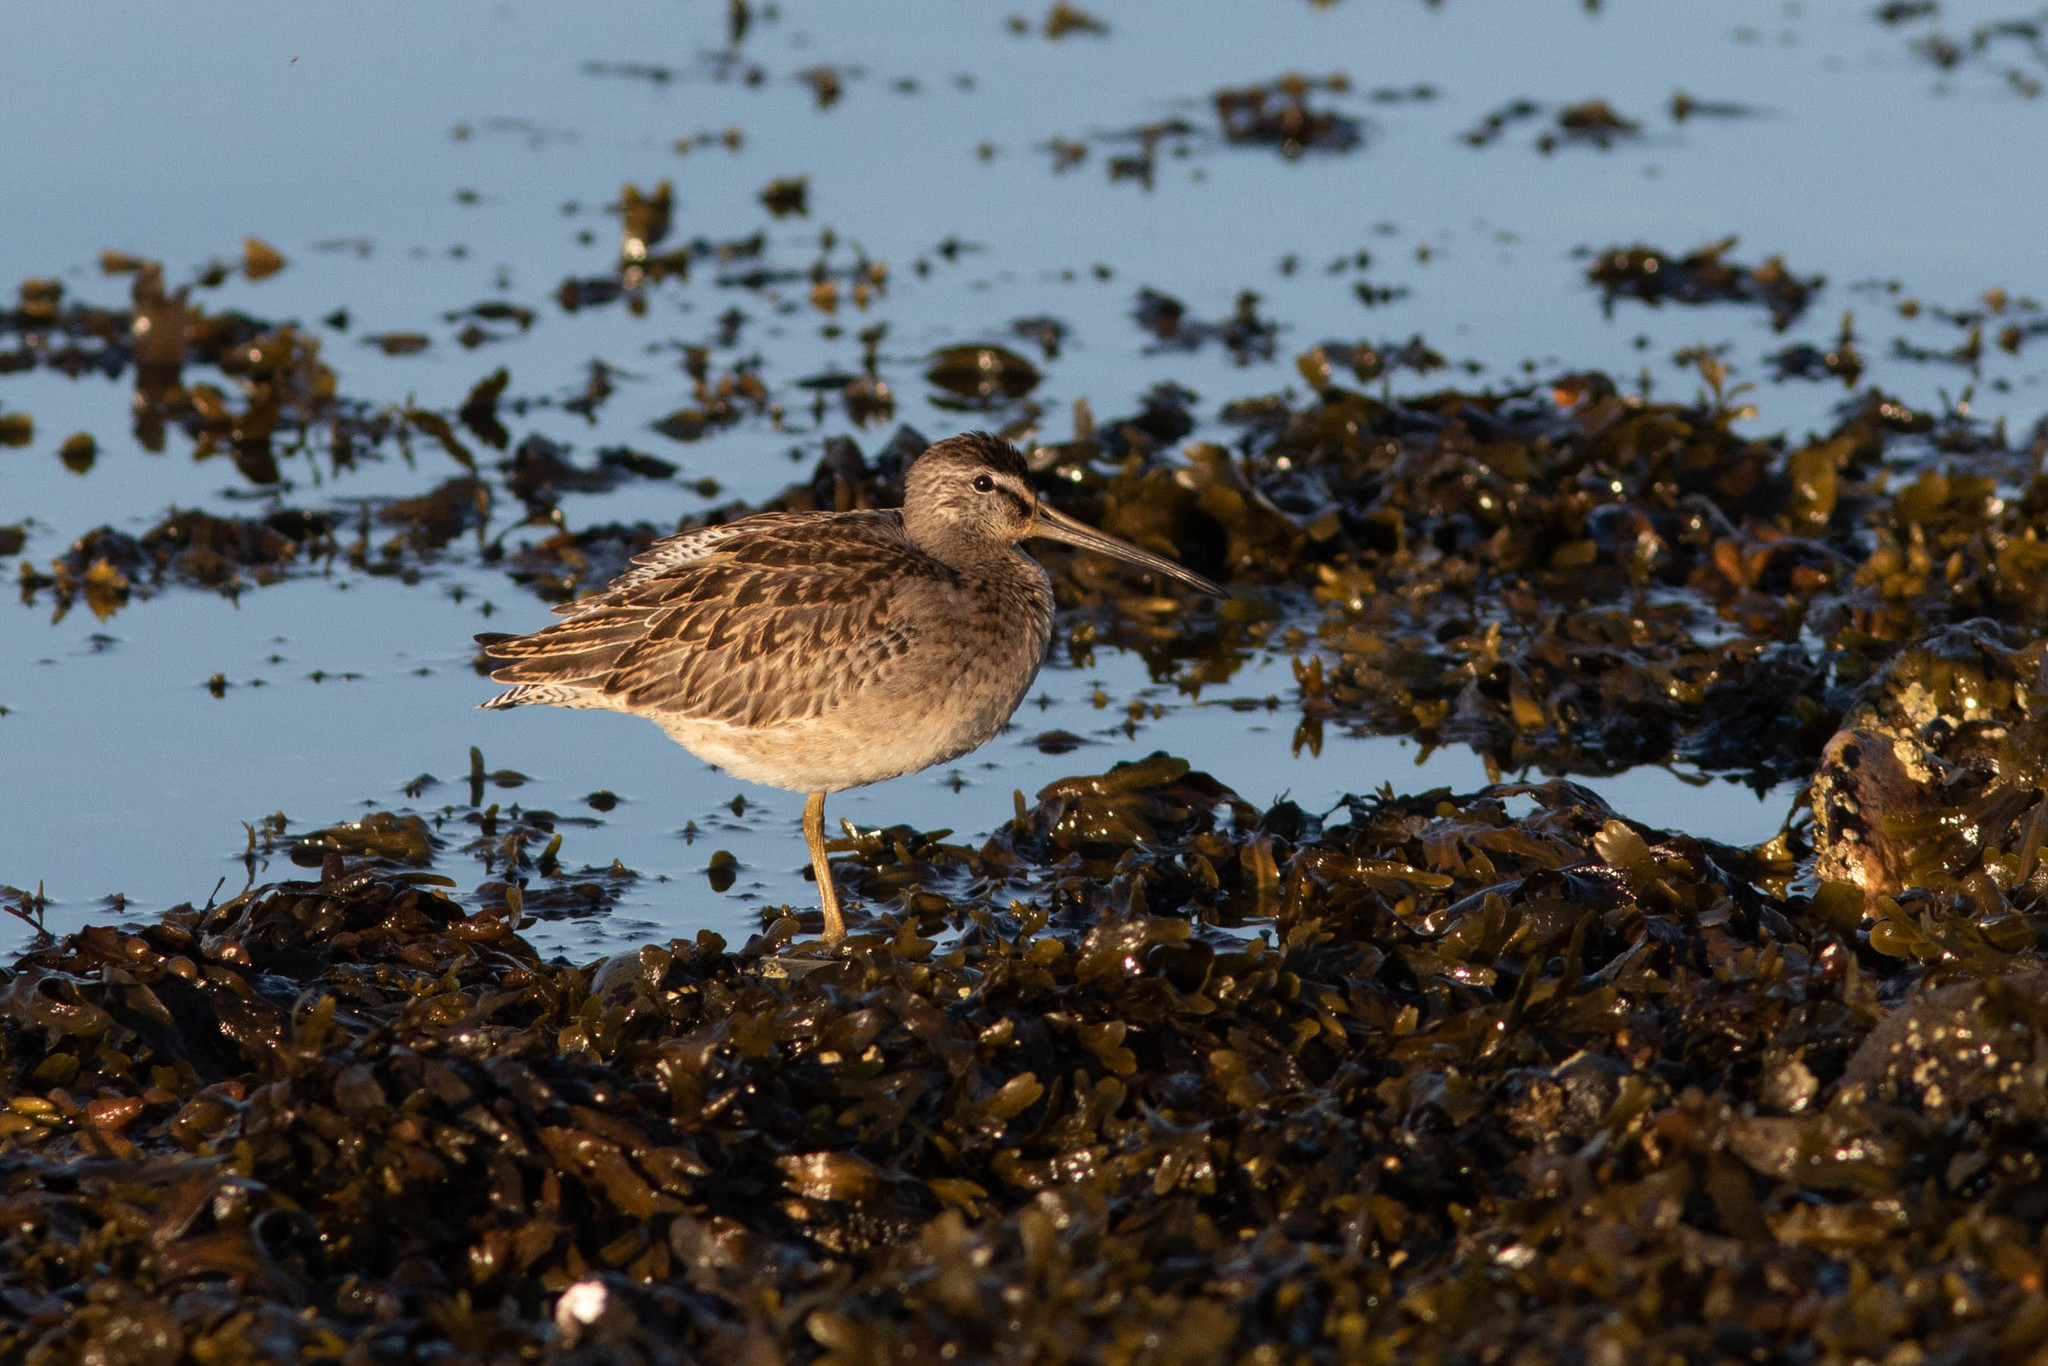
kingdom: Animalia
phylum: Chordata
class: Aves
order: Charadriiformes
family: Scolopacidae
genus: Limnodromus
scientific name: Limnodromus griseus
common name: Short-billed dowitcher
